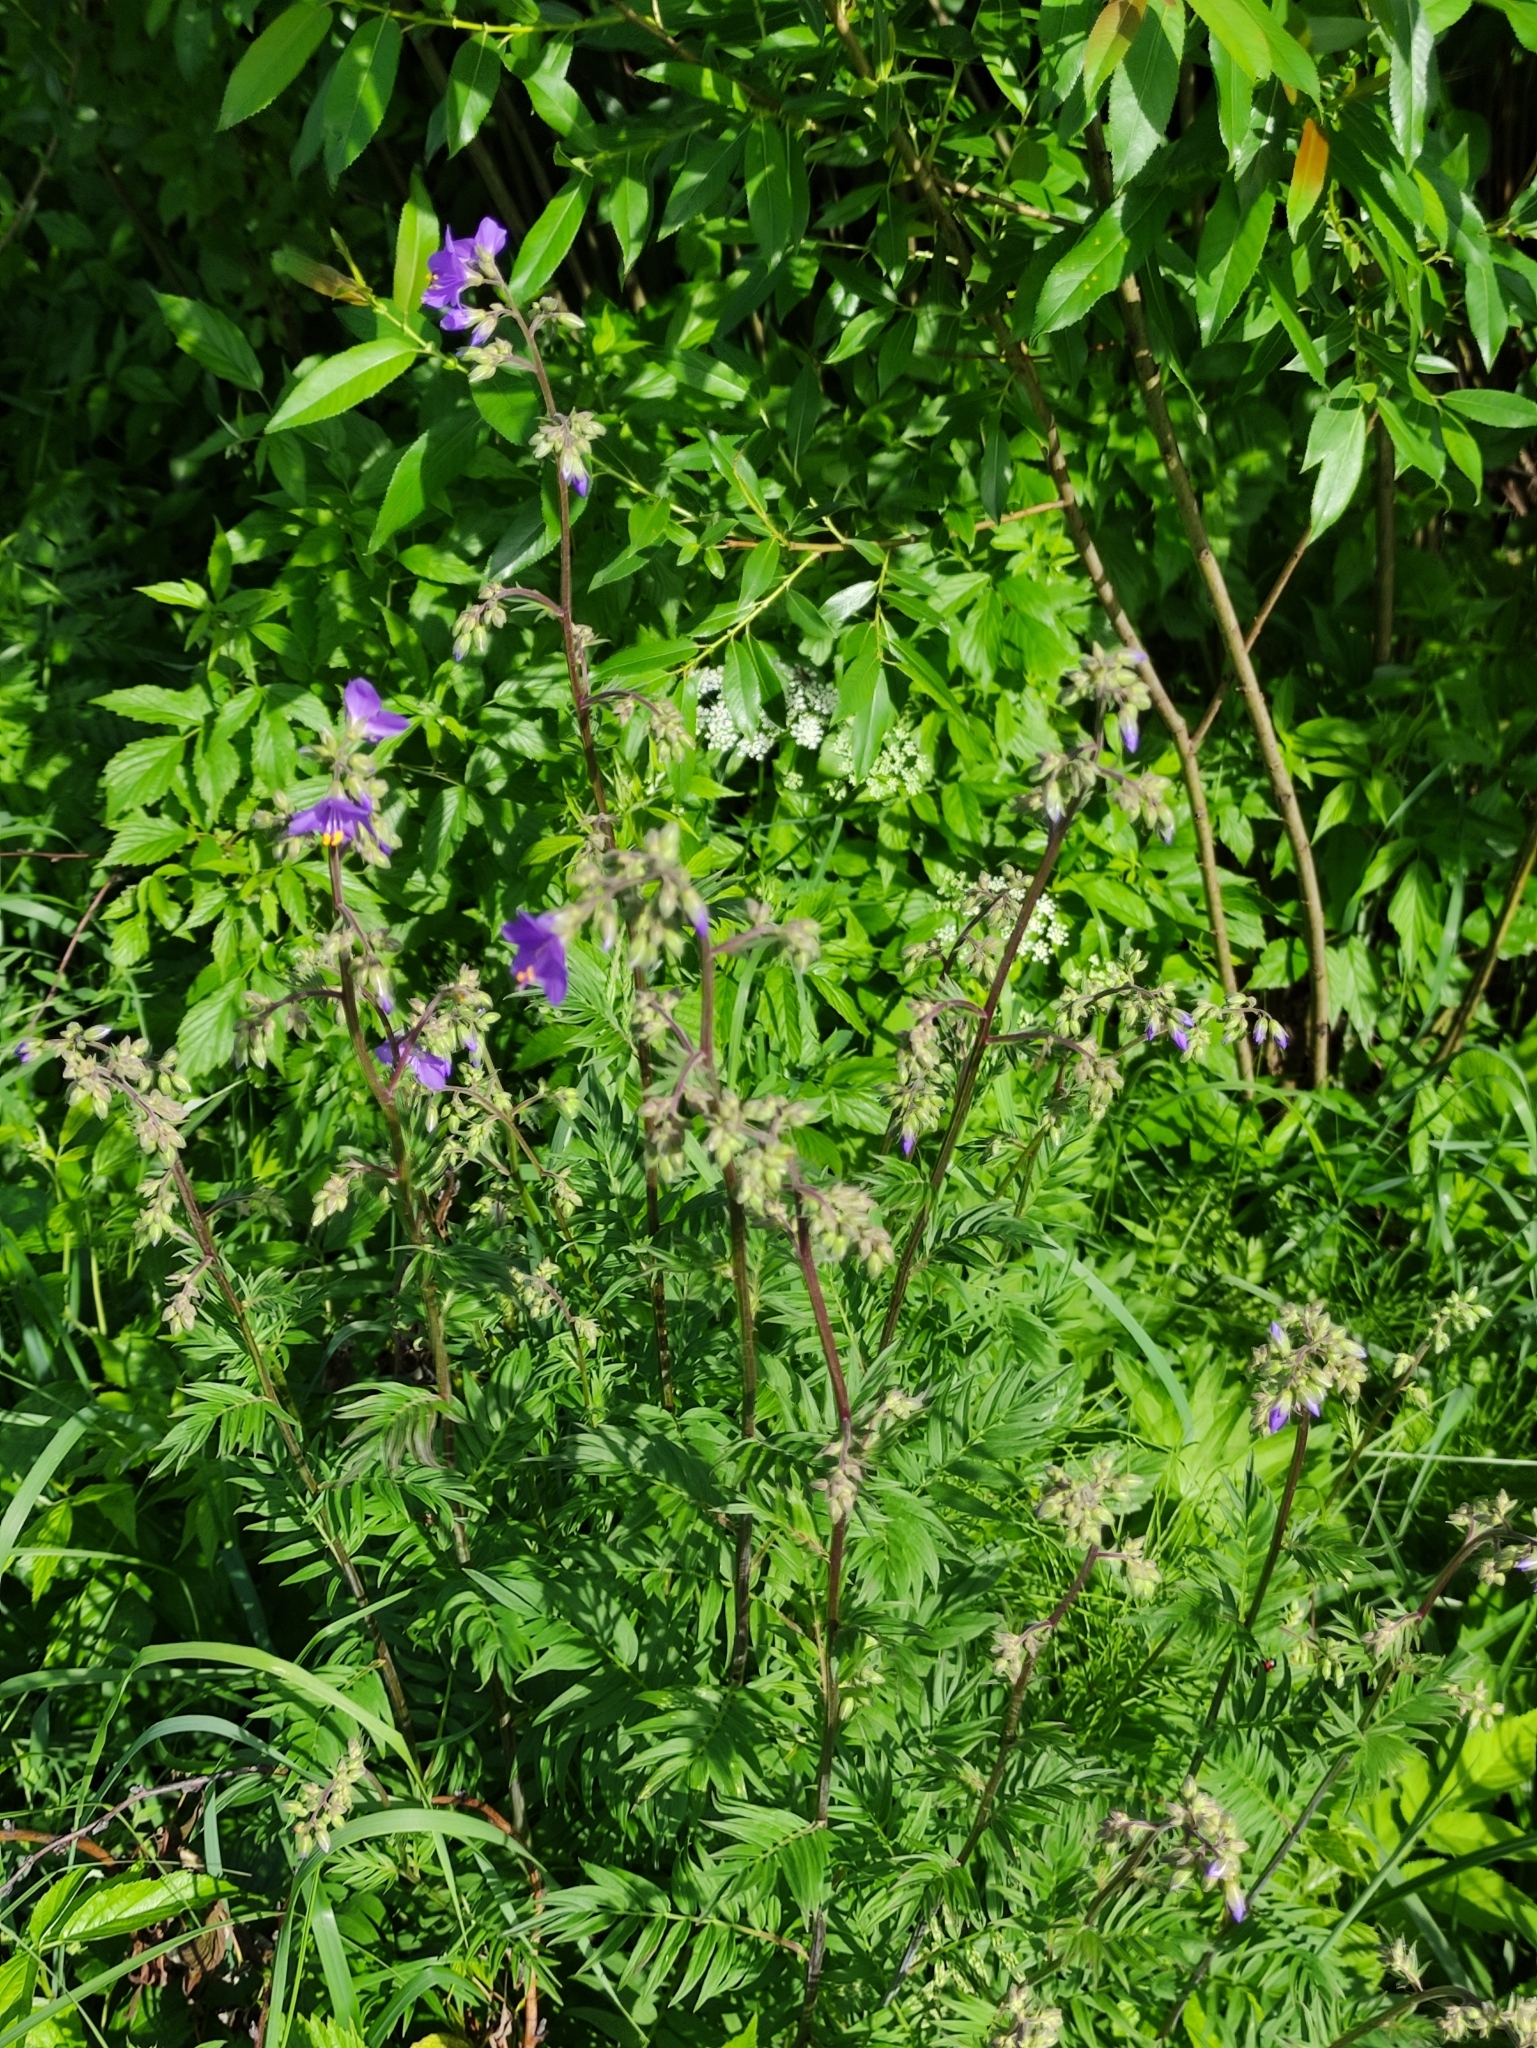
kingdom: Plantae
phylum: Tracheophyta
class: Magnoliopsida
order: Ericales
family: Polemoniaceae
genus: Polemonium
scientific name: Polemonium caeruleum
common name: Jacob's-ladder
